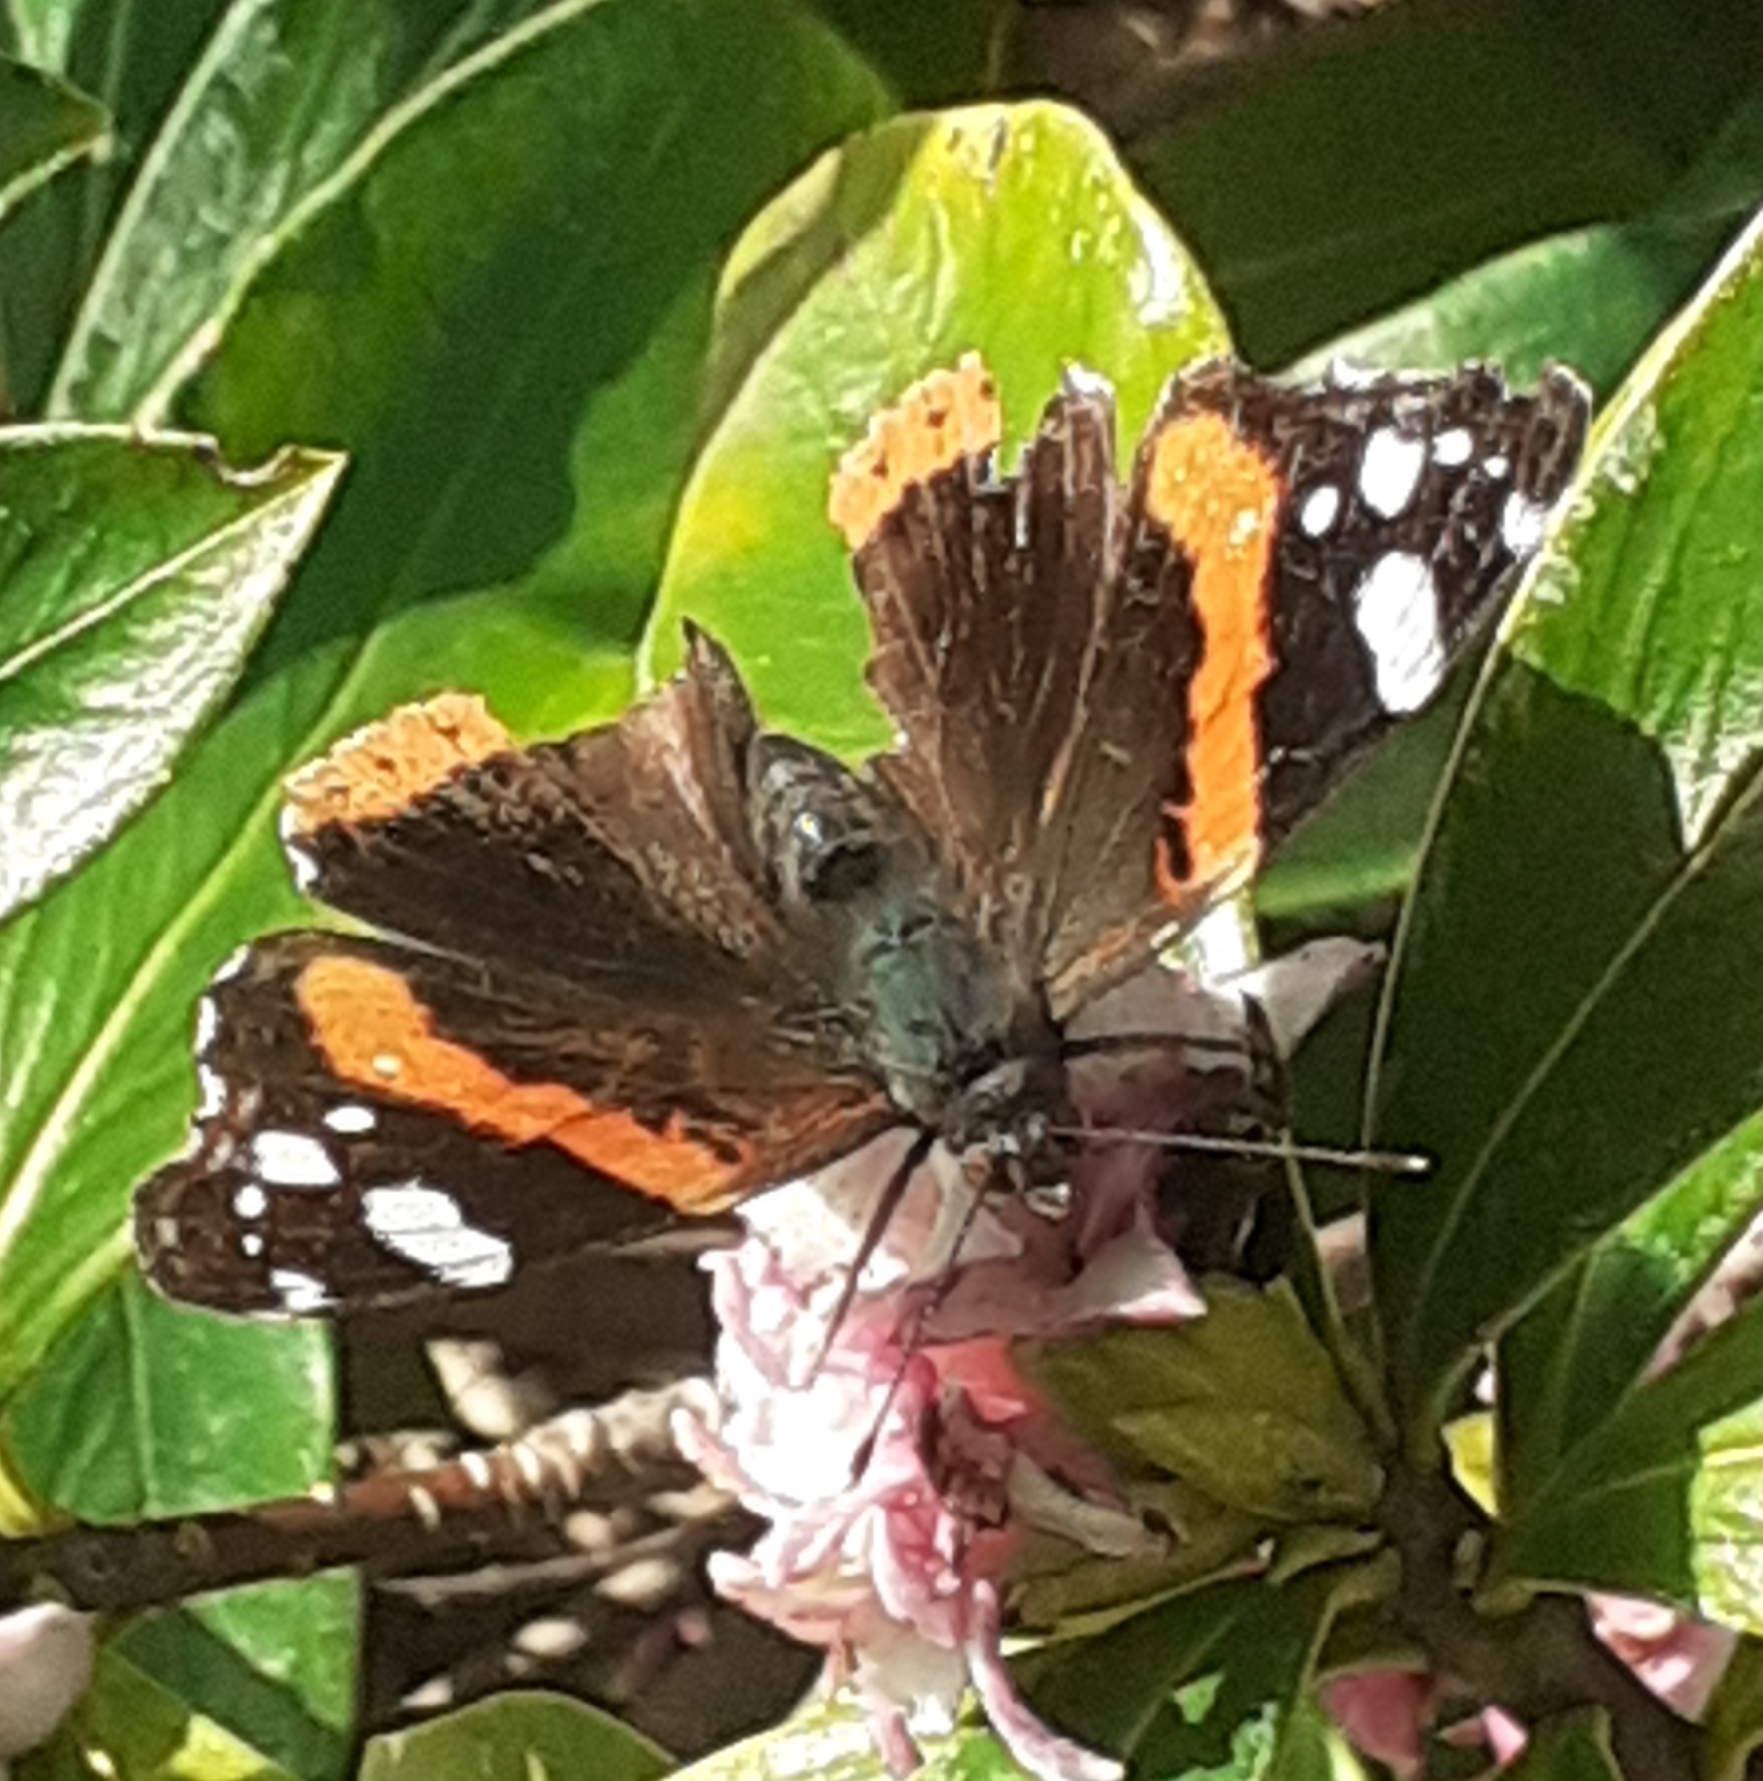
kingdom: Animalia
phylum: Arthropoda
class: Insecta
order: Lepidoptera
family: Nymphalidae
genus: Vanessa
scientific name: Vanessa atalanta
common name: Red admiral
